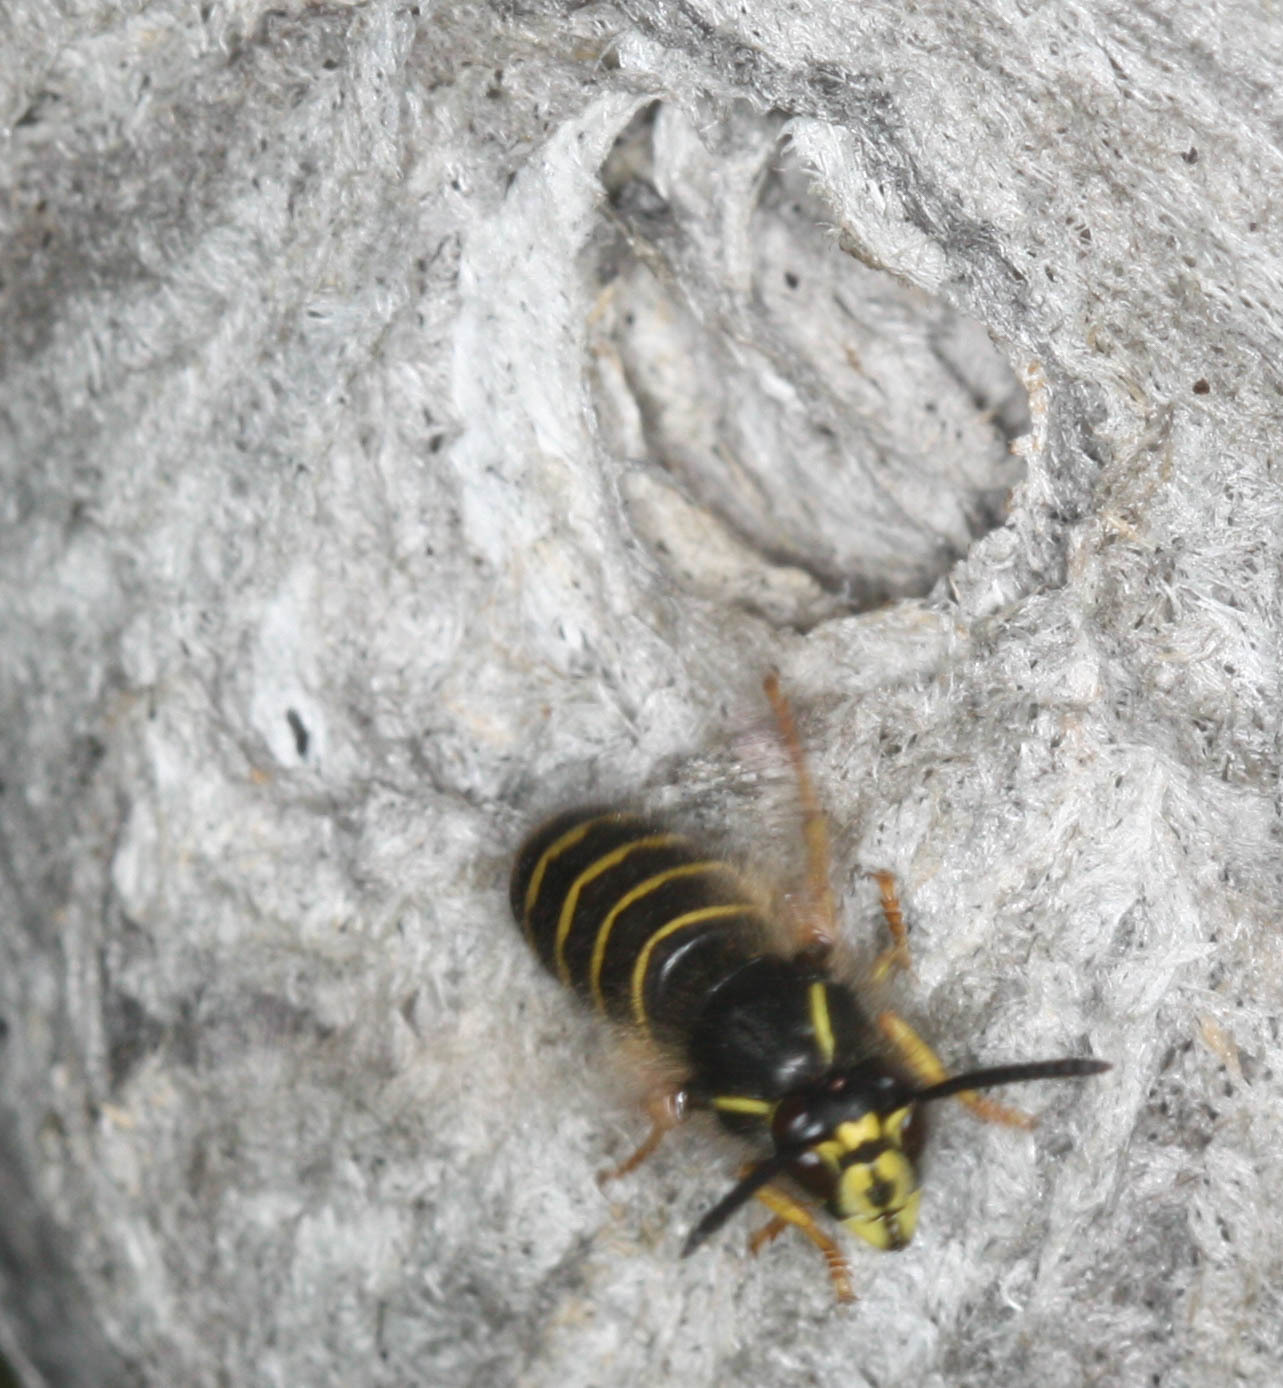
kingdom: Animalia
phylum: Arthropoda
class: Insecta
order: Hymenoptera
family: Vespidae
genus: Dolichovespula
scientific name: Dolichovespula norvegicoides
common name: Northern aerial yellowjacket
